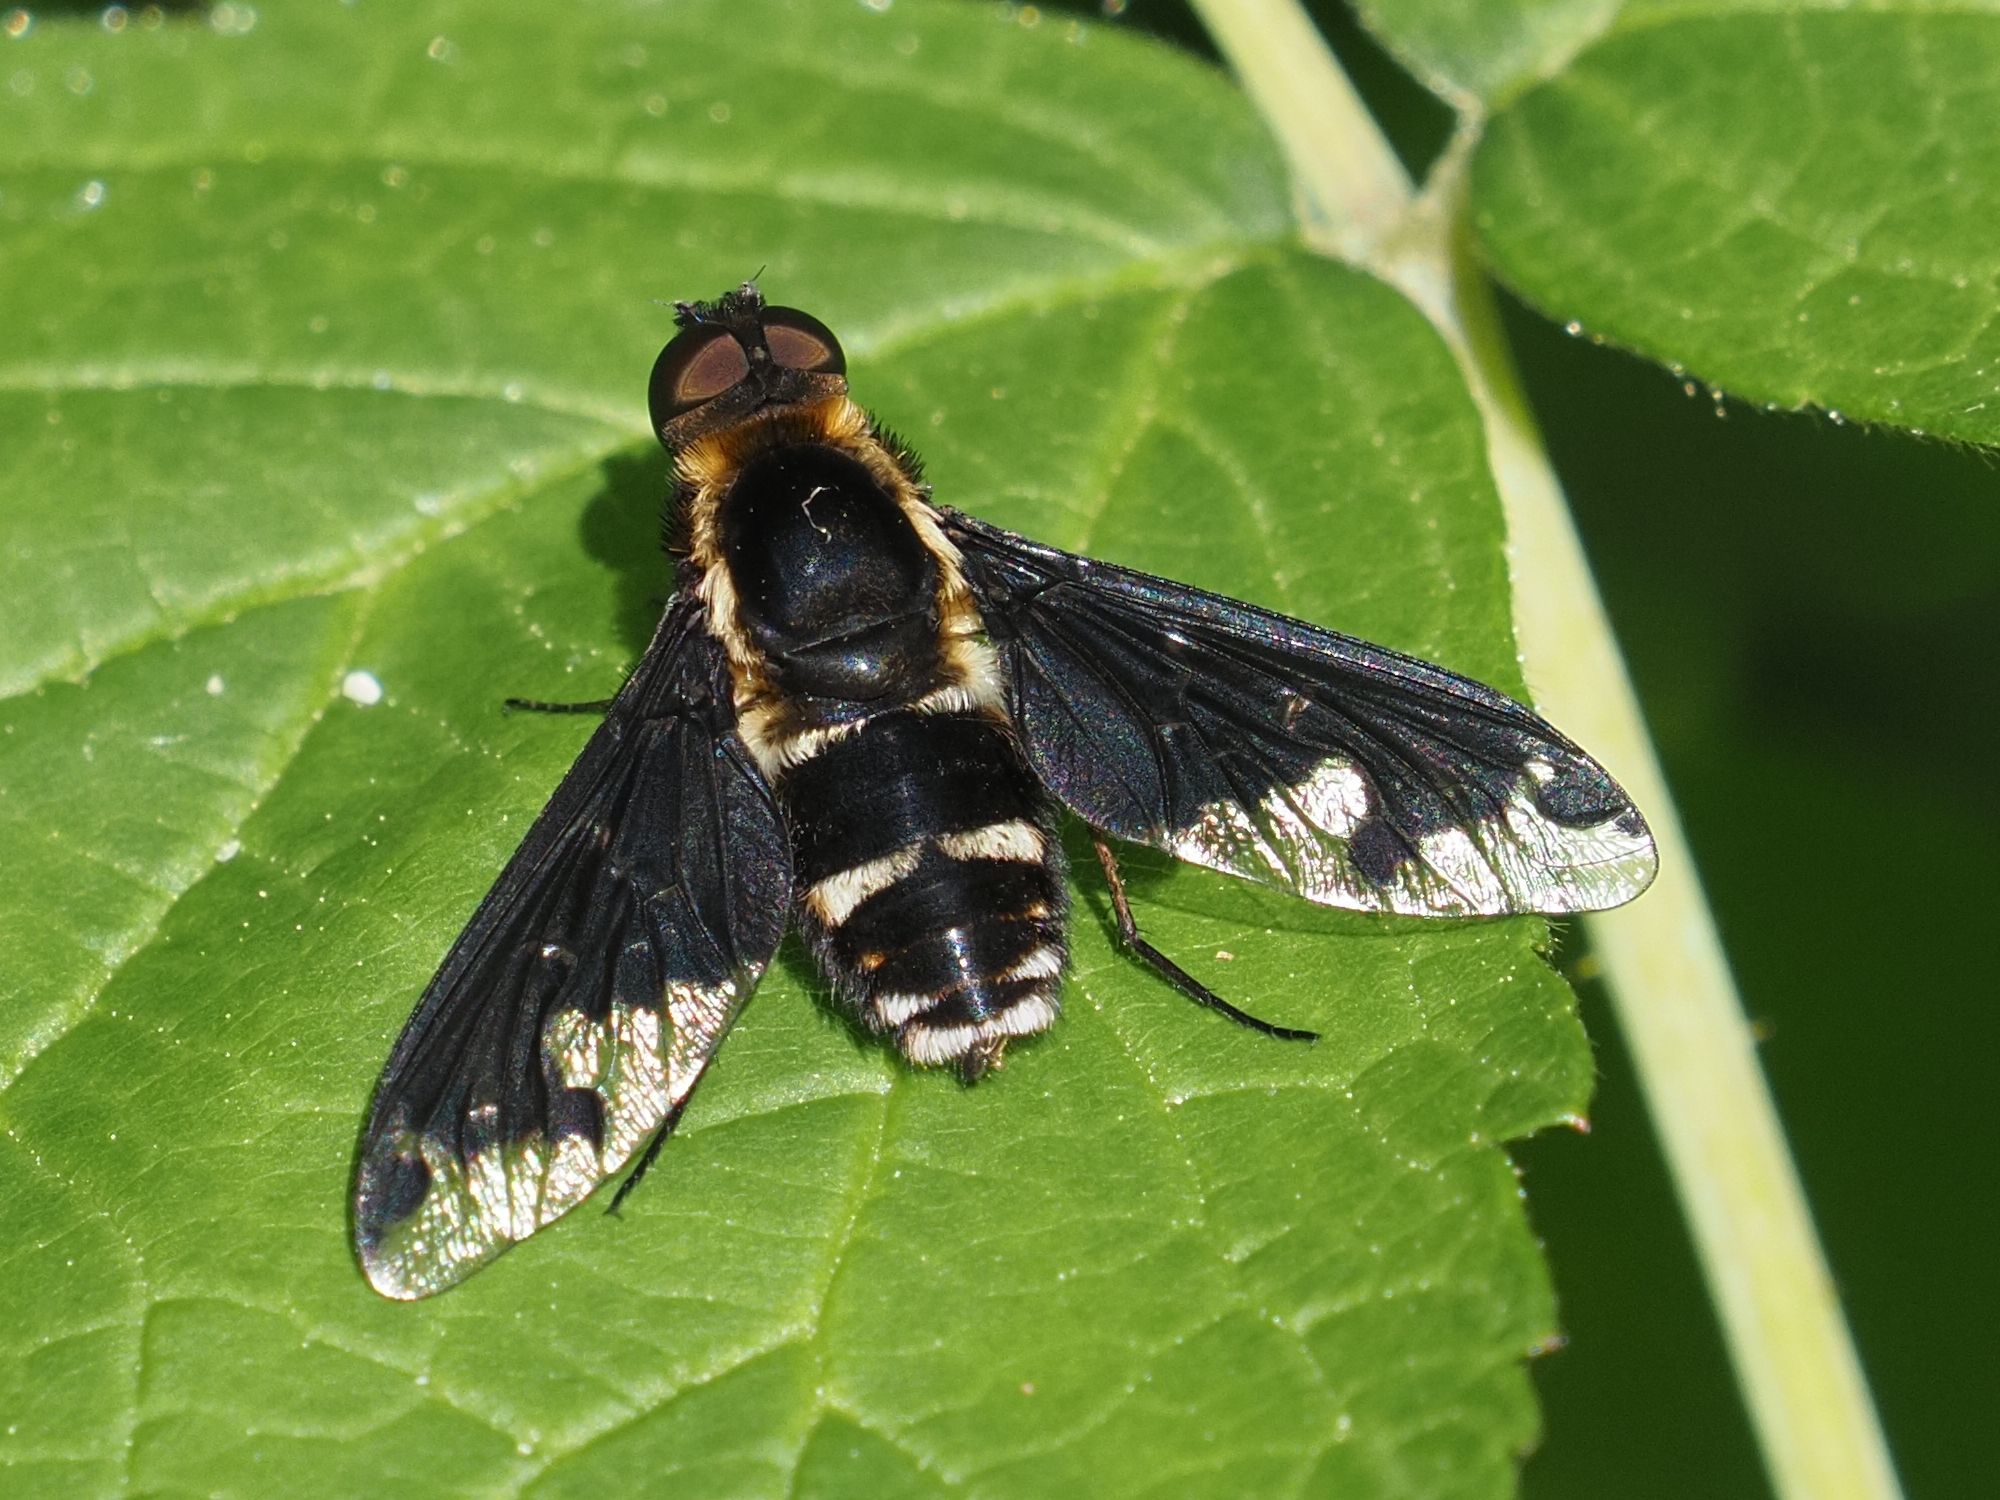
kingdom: Animalia
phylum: Arthropoda
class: Insecta
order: Diptera
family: Bombyliidae
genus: Hemipenthes
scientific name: Hemipenthes maura
